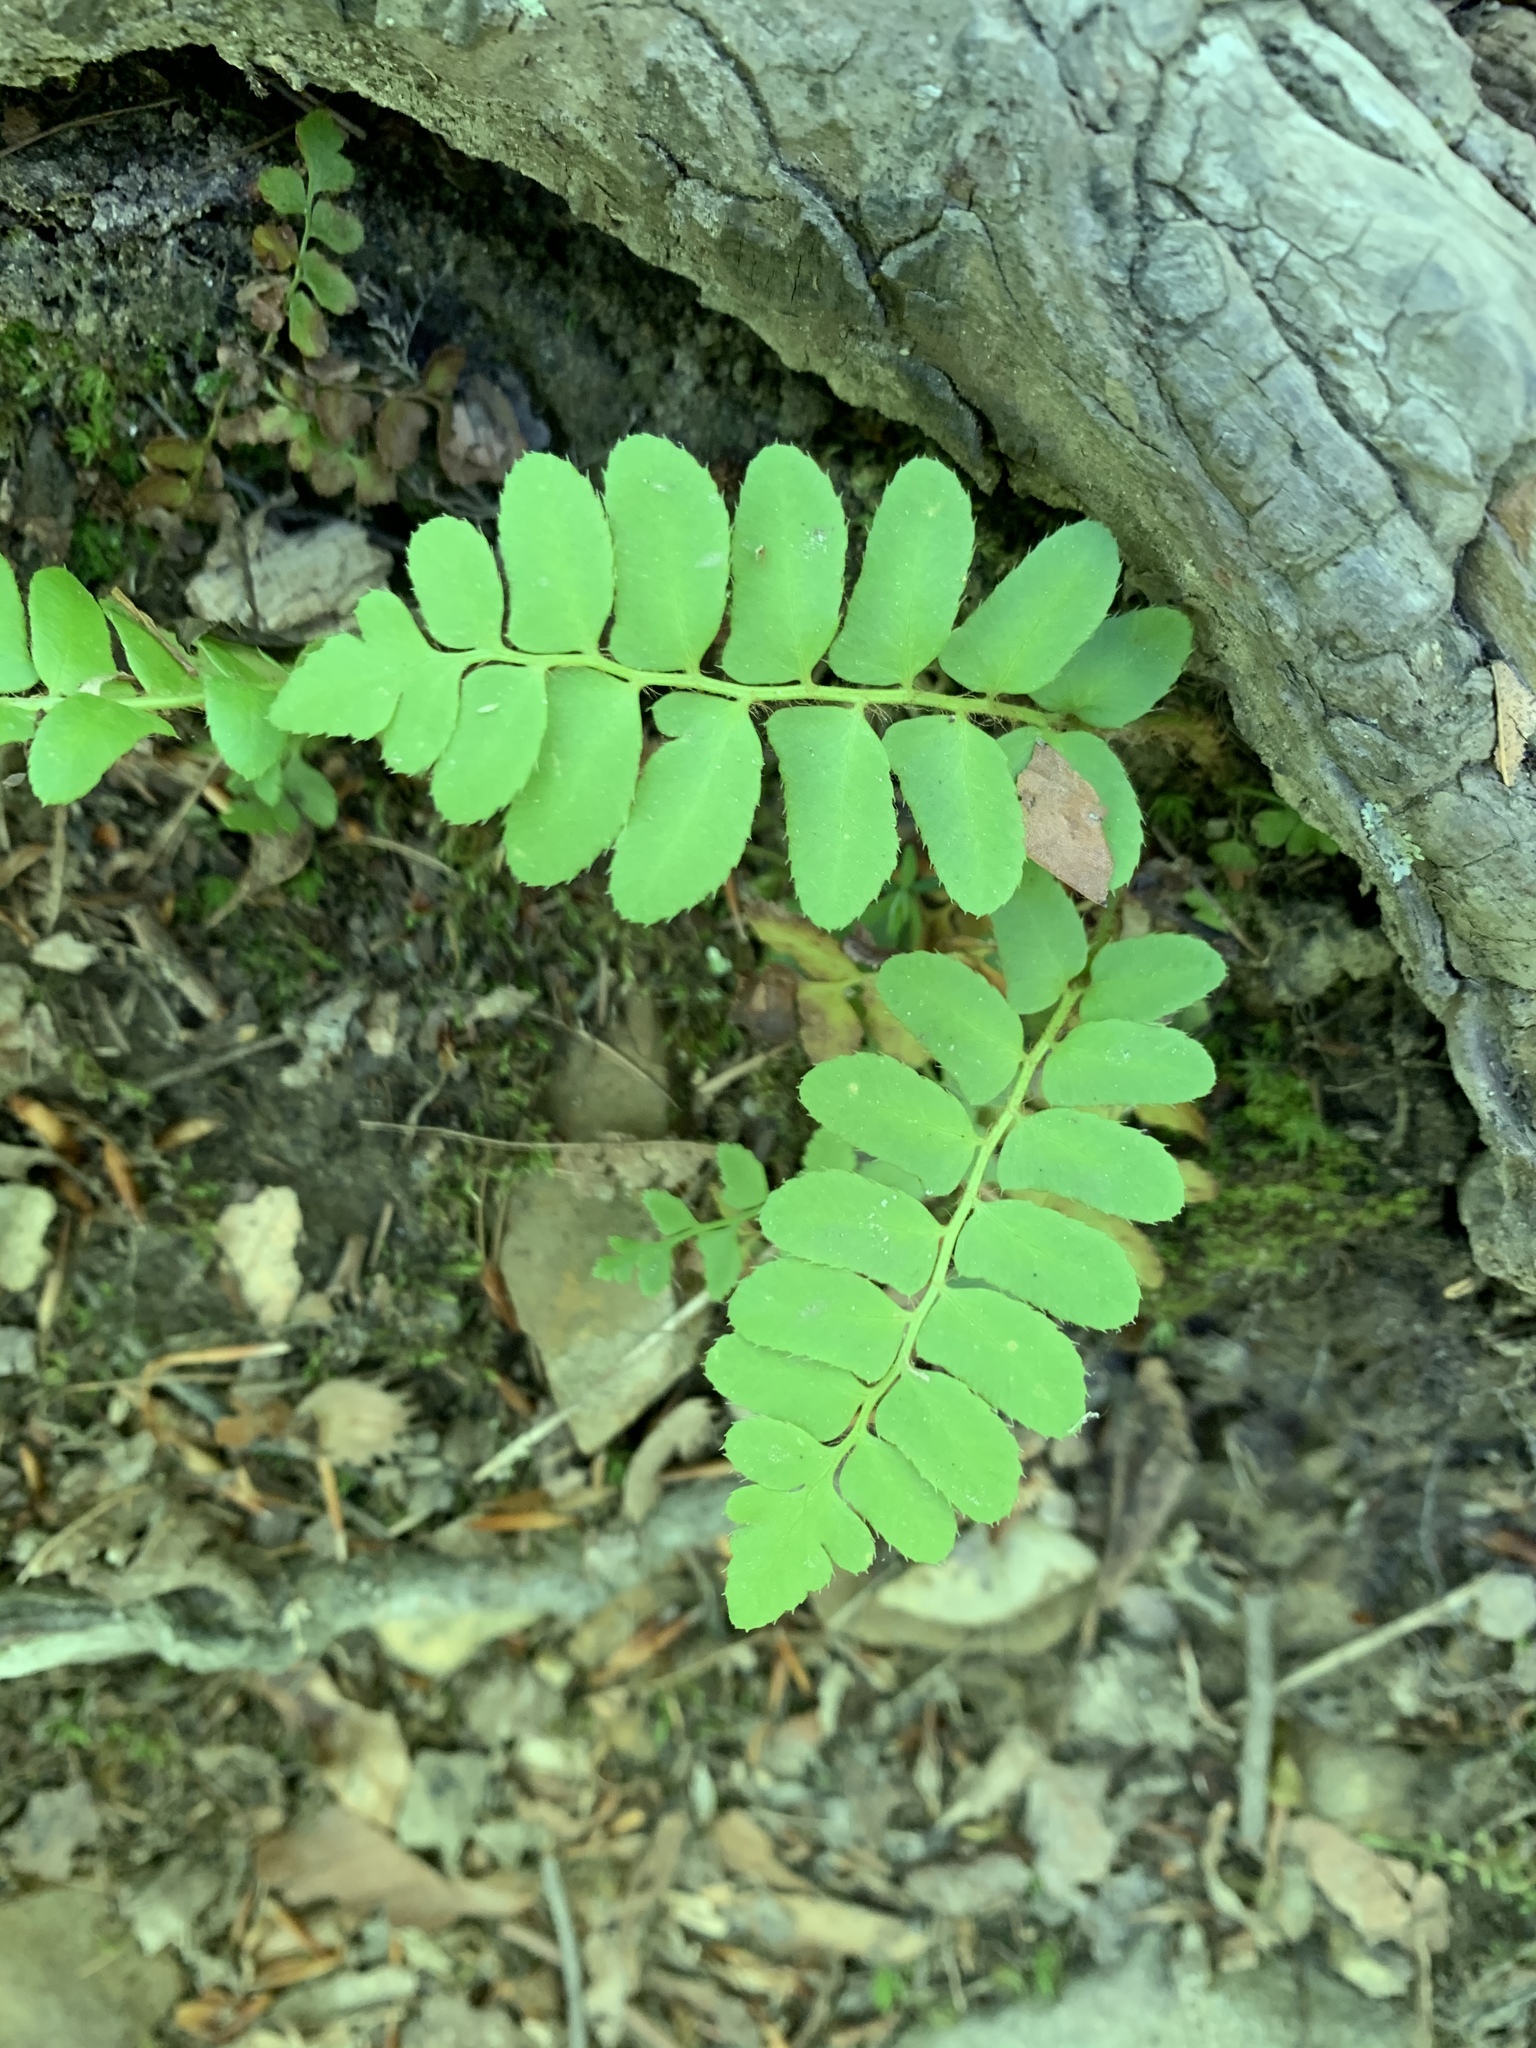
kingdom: Plantae
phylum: Tracheophyta
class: Polypodiopsida
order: Polypodiales
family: Dryopteridaceae
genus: Polystichum
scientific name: Polystichum acrostichoides
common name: Christmas fern
